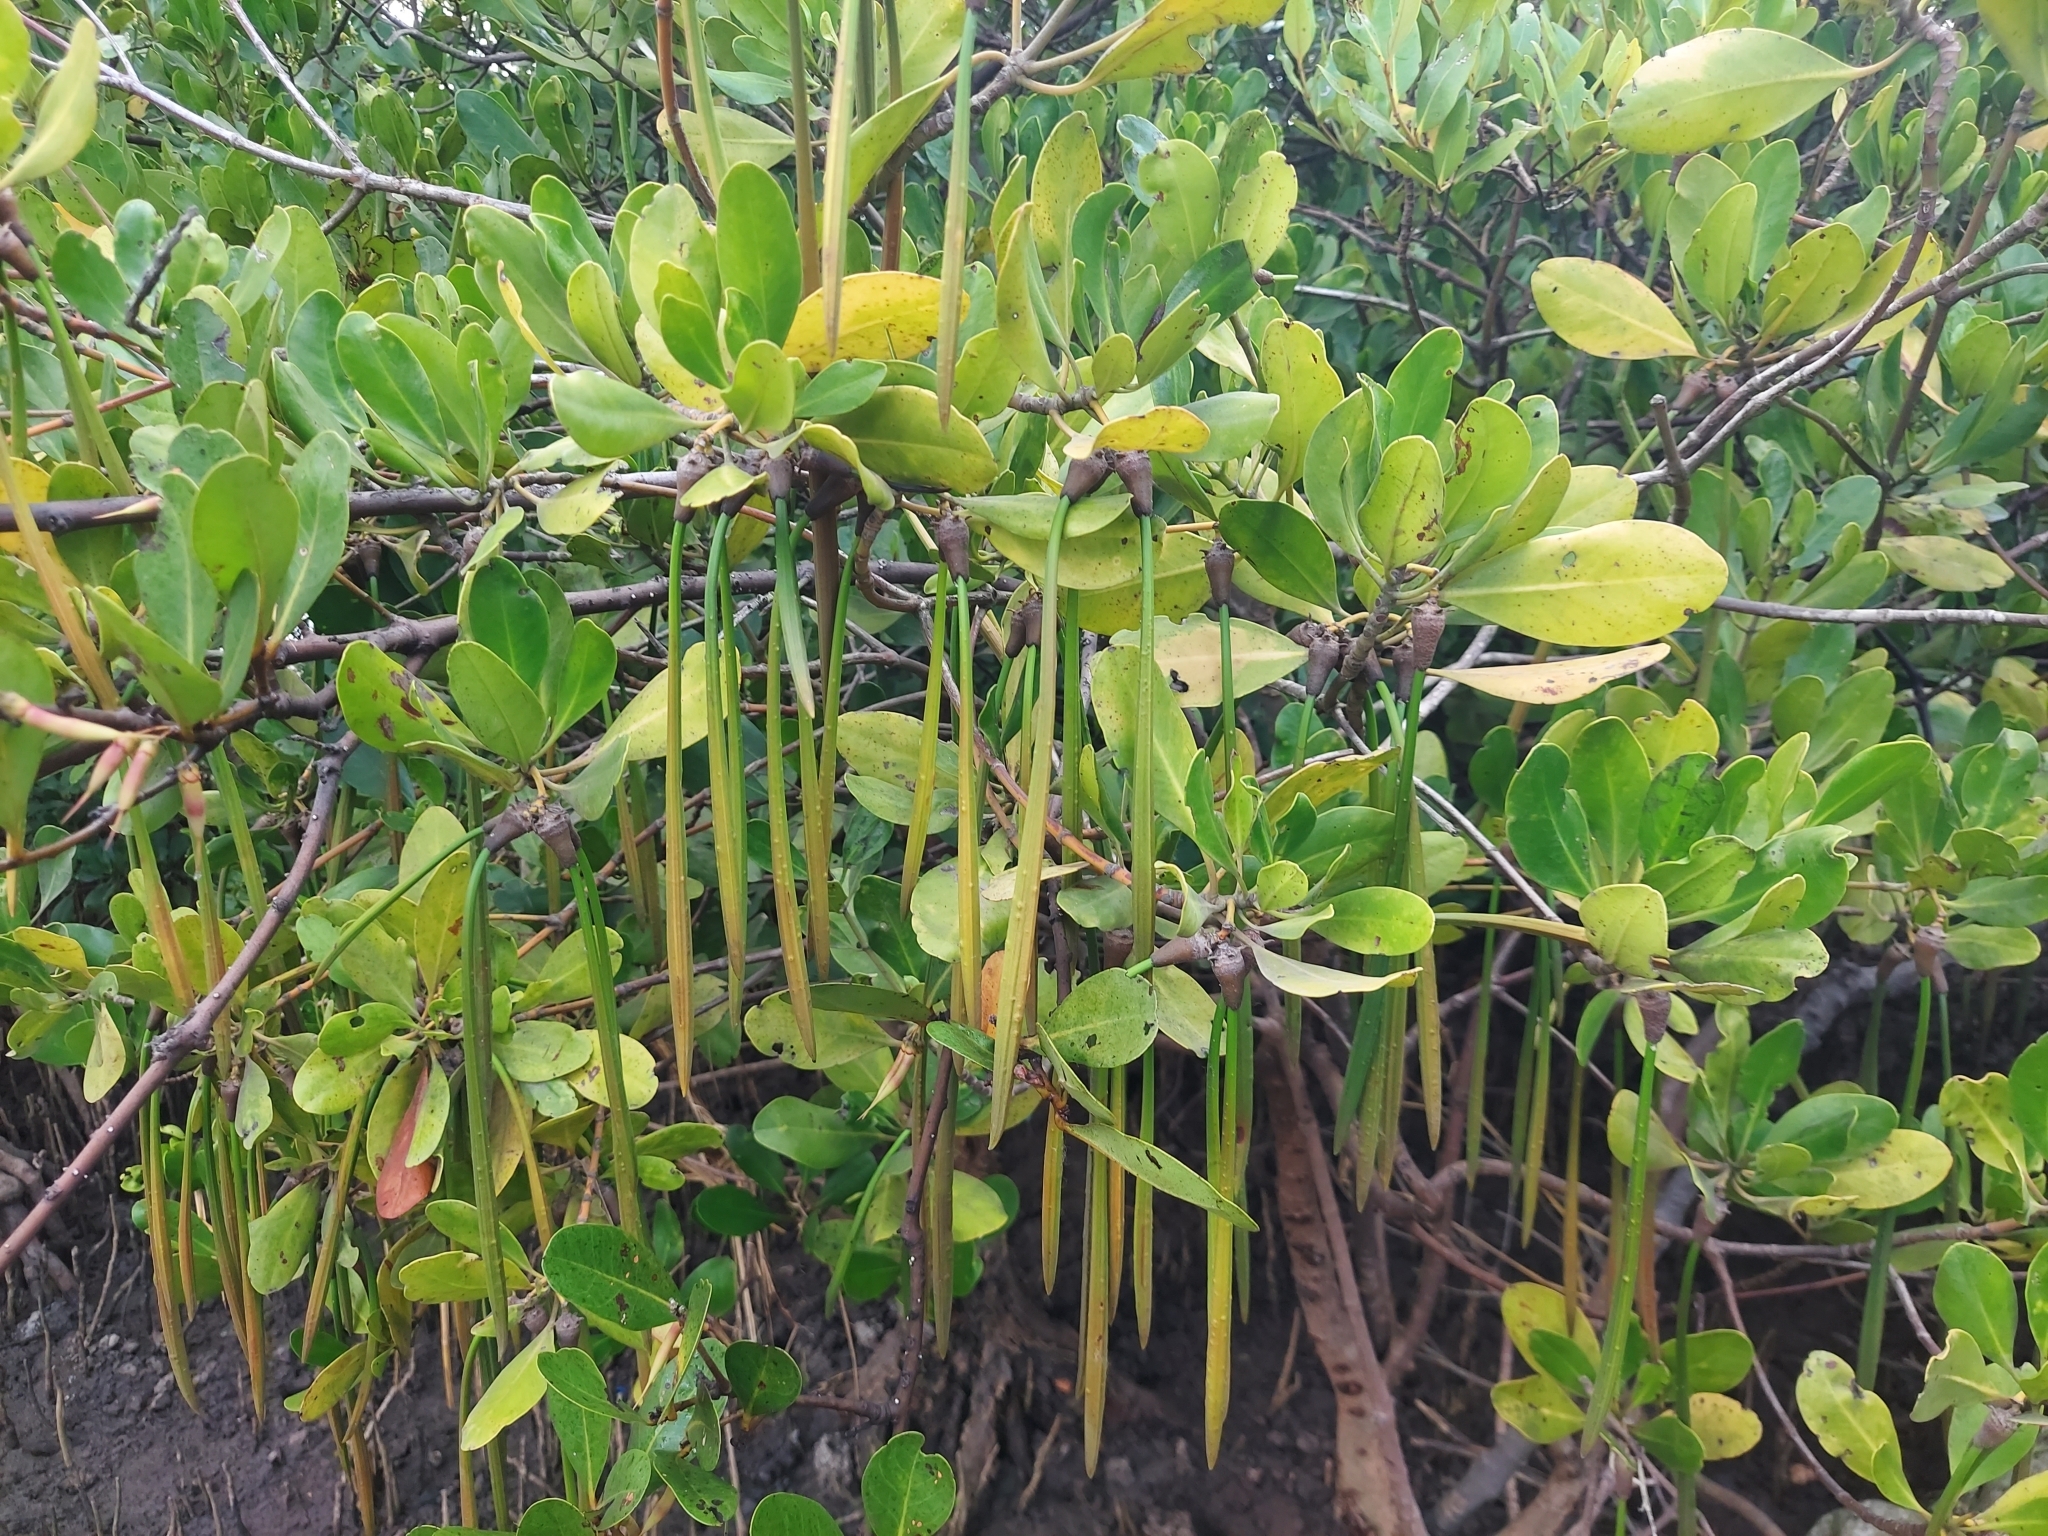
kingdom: Plantae
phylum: Tracheophyta
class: Magnoliopsida
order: Malpighiales
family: Rhizophoraceae
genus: Ceriops
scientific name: Ceriops tagal
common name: Spurred mangrove
